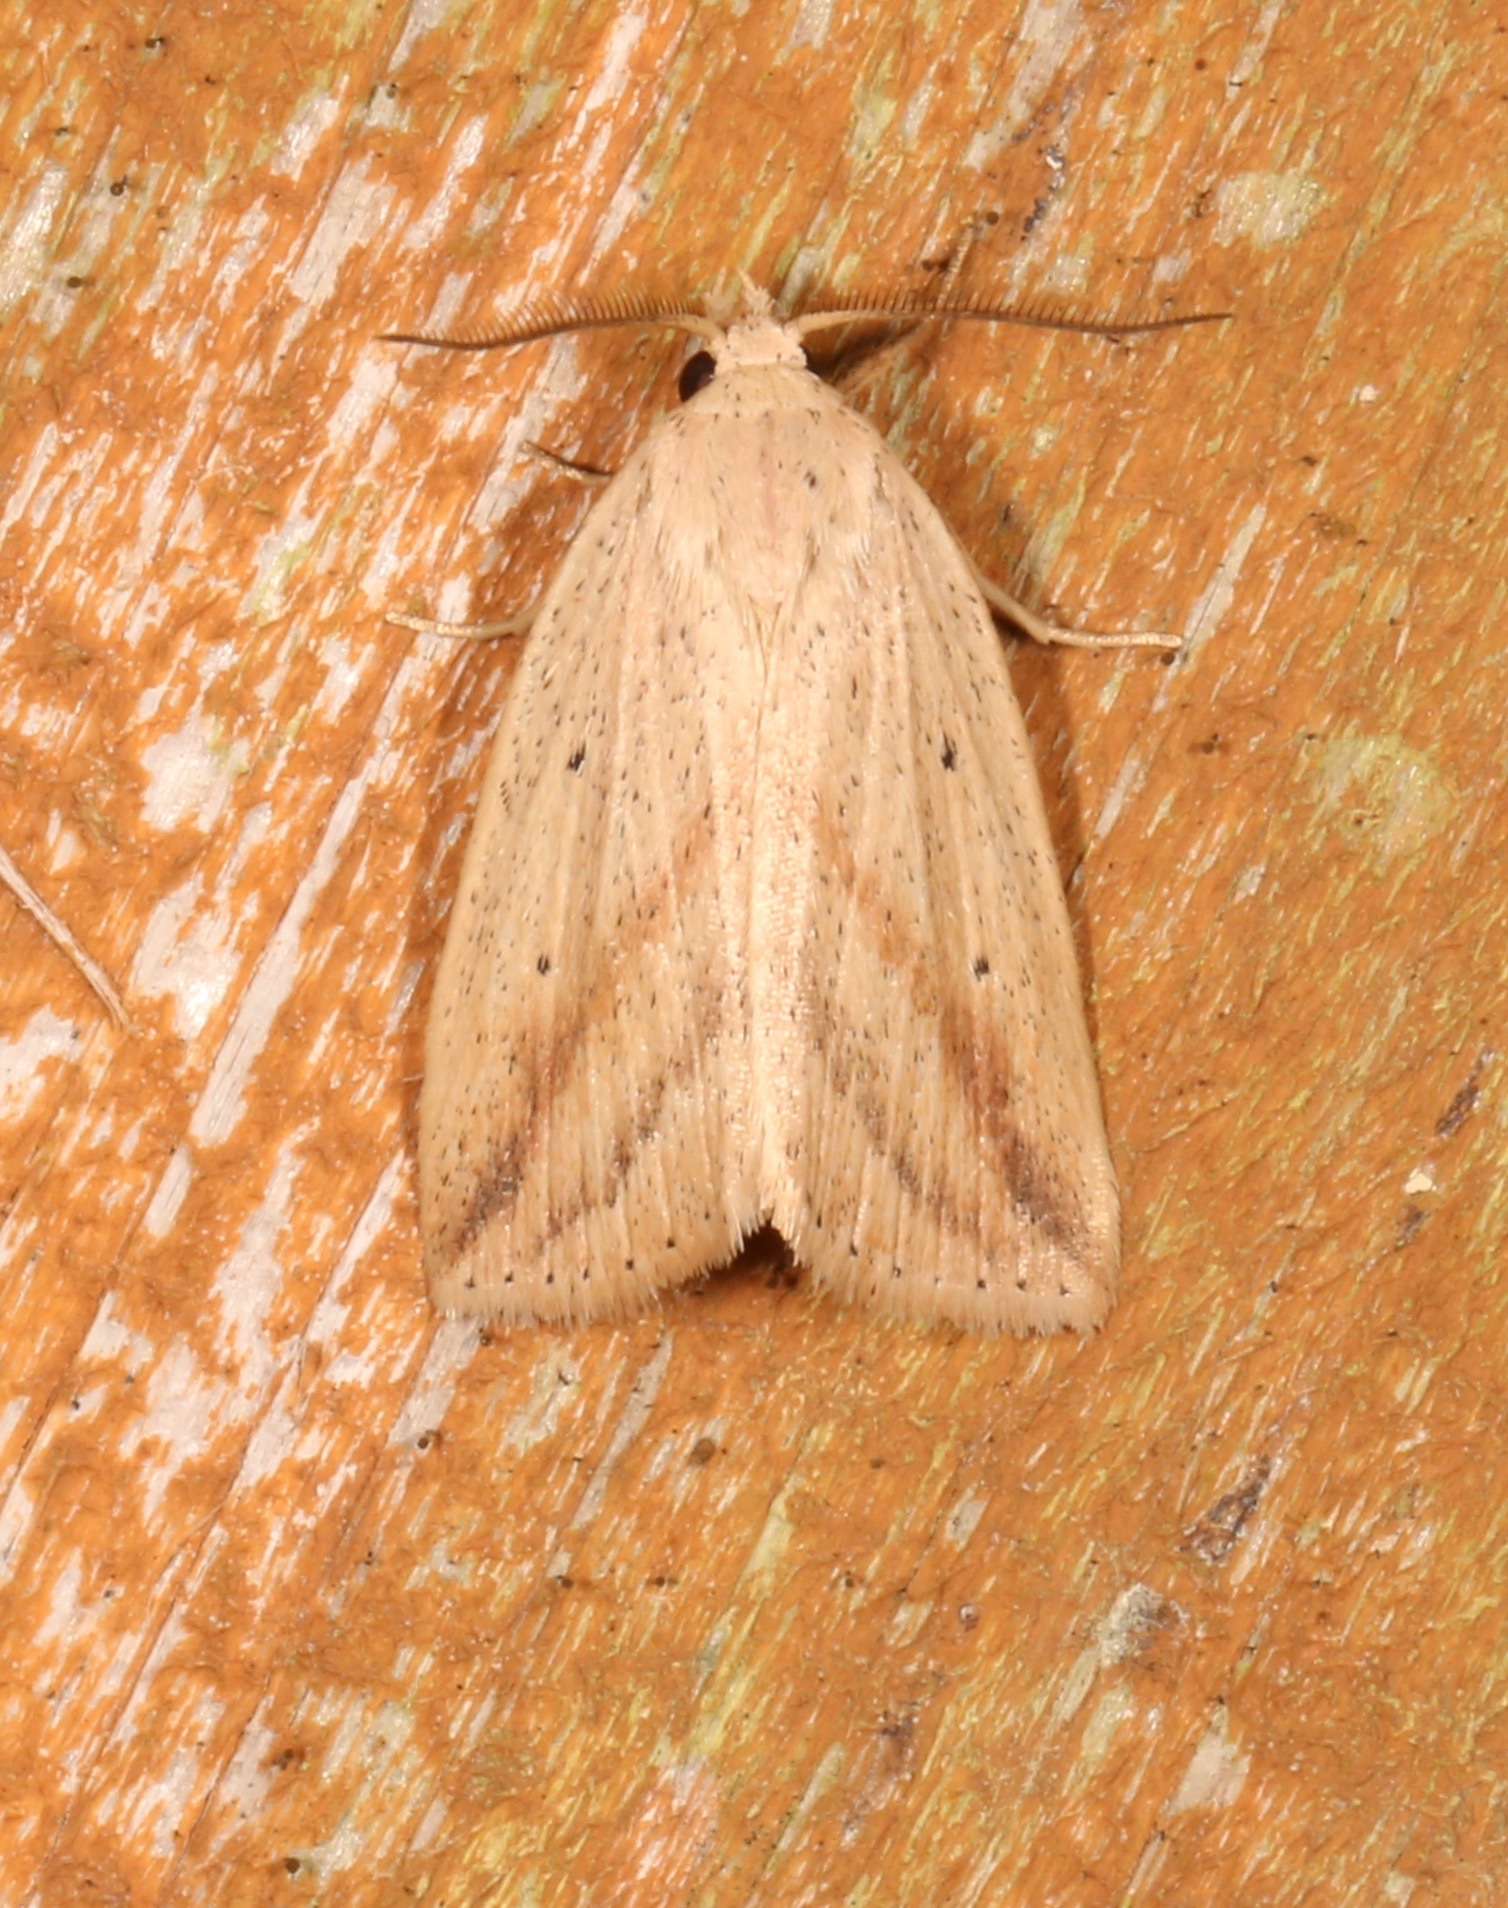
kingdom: Animalia
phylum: Arthropoda
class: Insecta
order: Lepidoptera
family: Noctuidae
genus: Amolita
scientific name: Amolita obliqua
